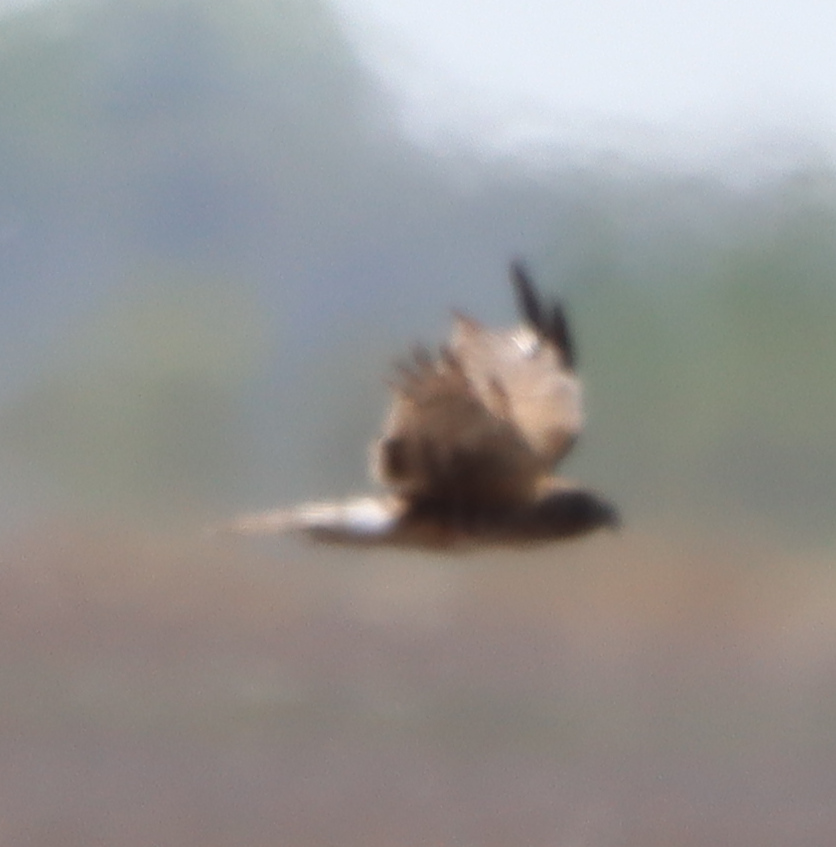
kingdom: Animalia
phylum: Chordata
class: Aves
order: Accipitriformes
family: Accipitridae
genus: Circus
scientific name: Circus cyaneus
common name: Hen harrier
